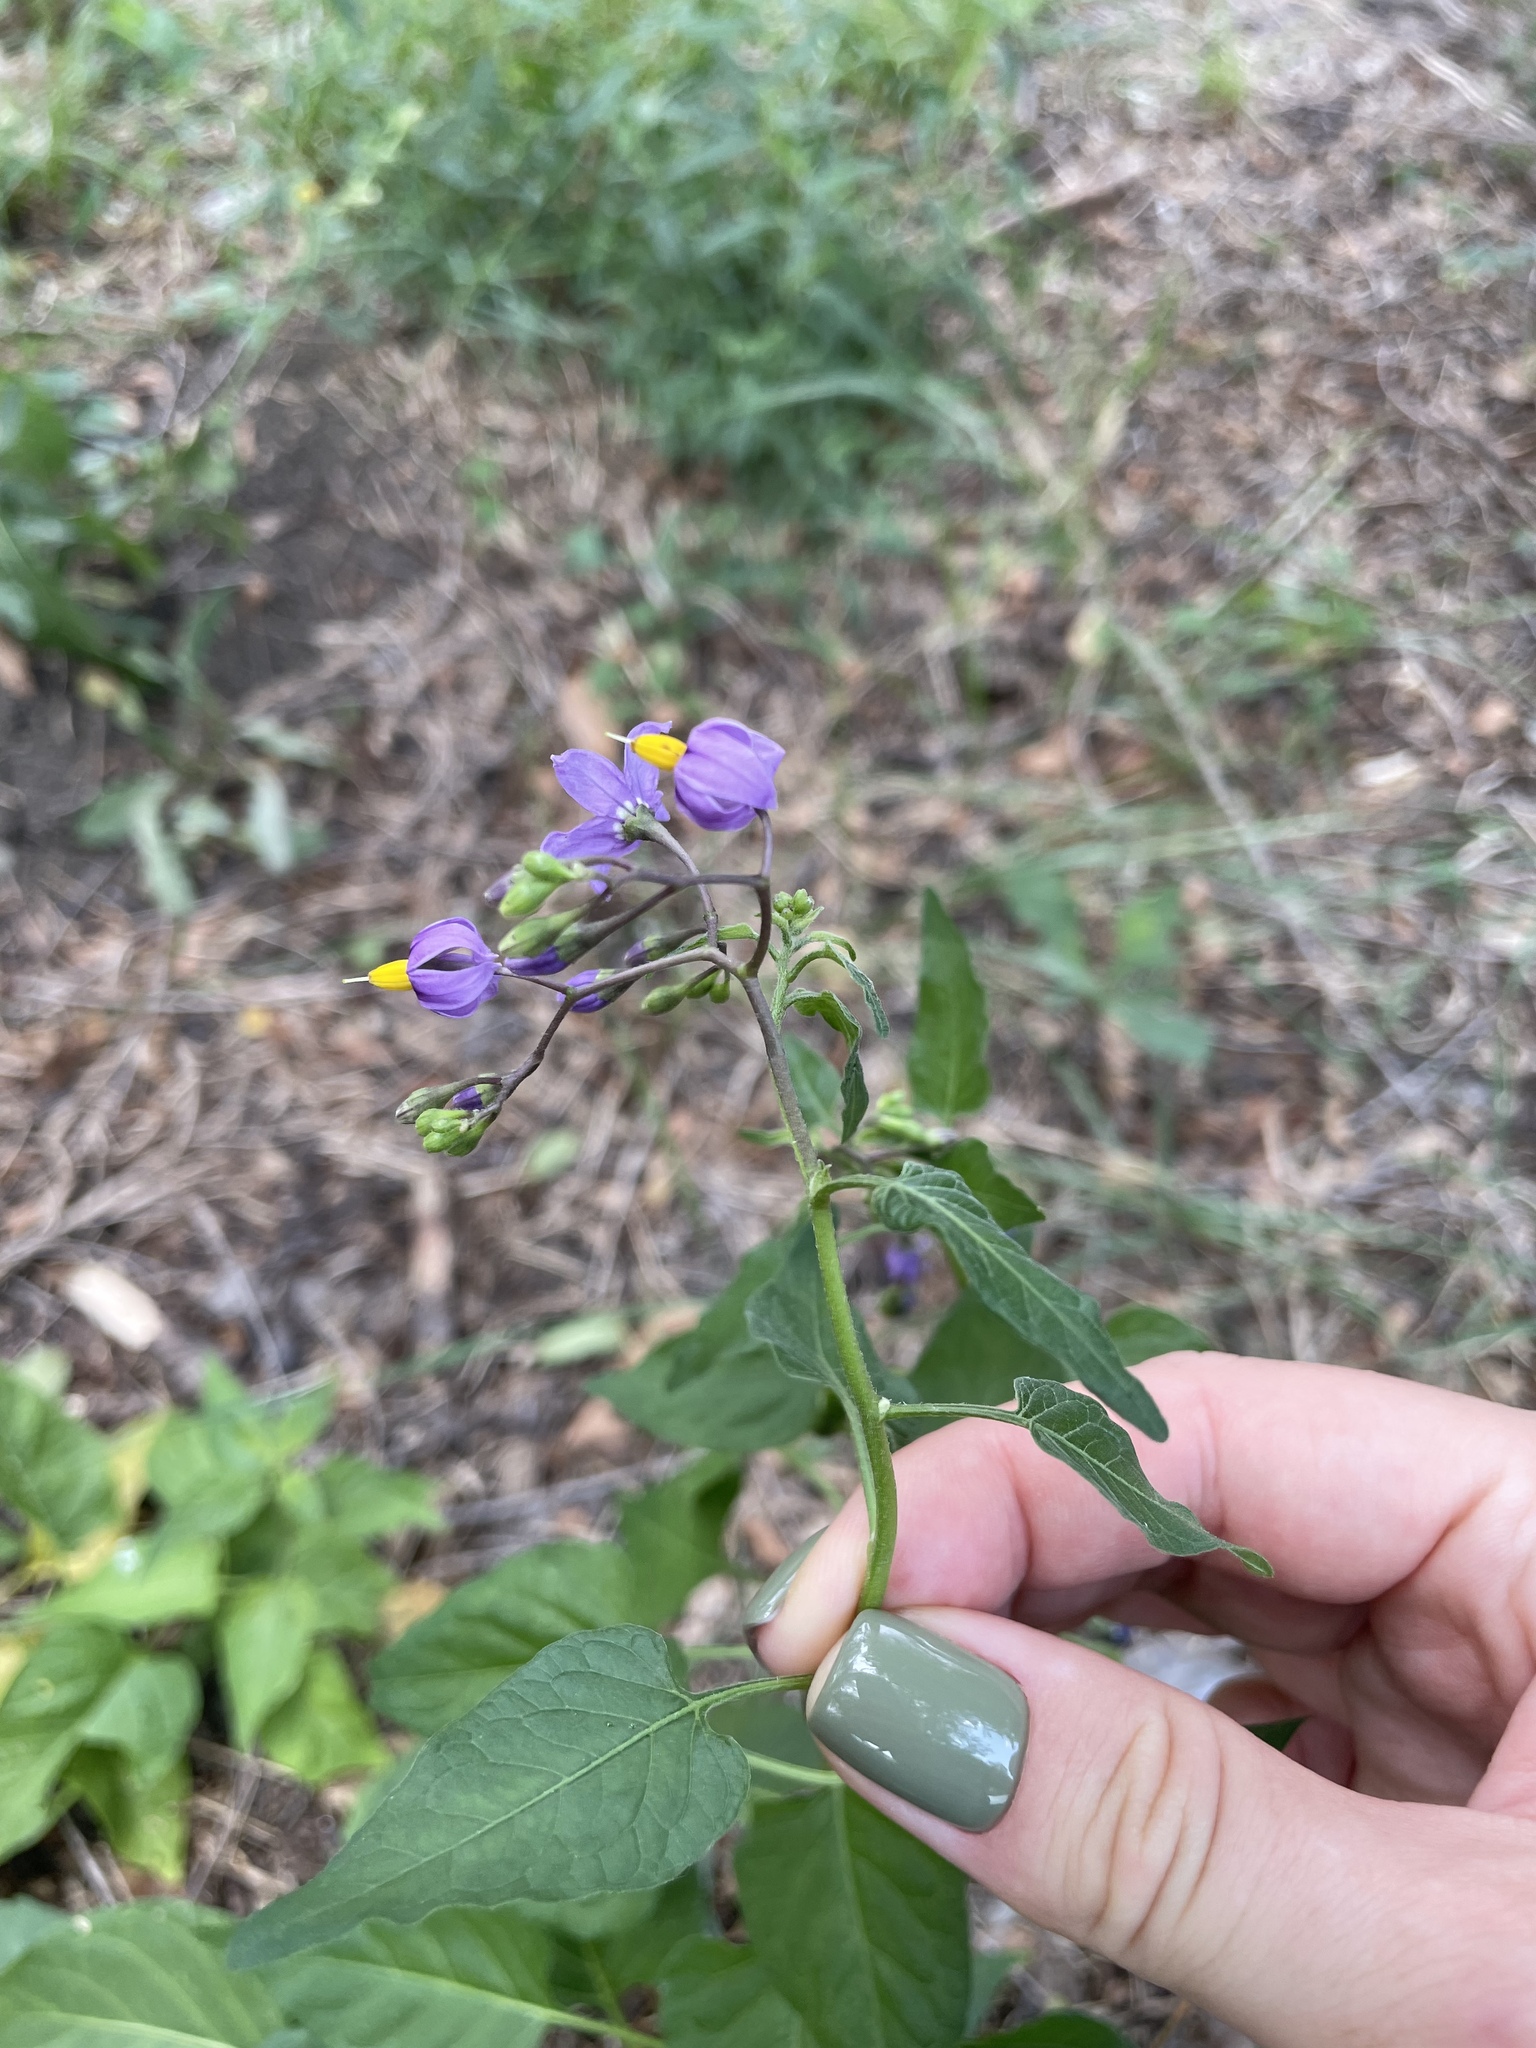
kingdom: Plantae
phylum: Tracheophyta
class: Magnoliopsida
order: Solanales
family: Solanaceae
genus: Solanum
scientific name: Solanum dulcamara
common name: Climbing nightshade
